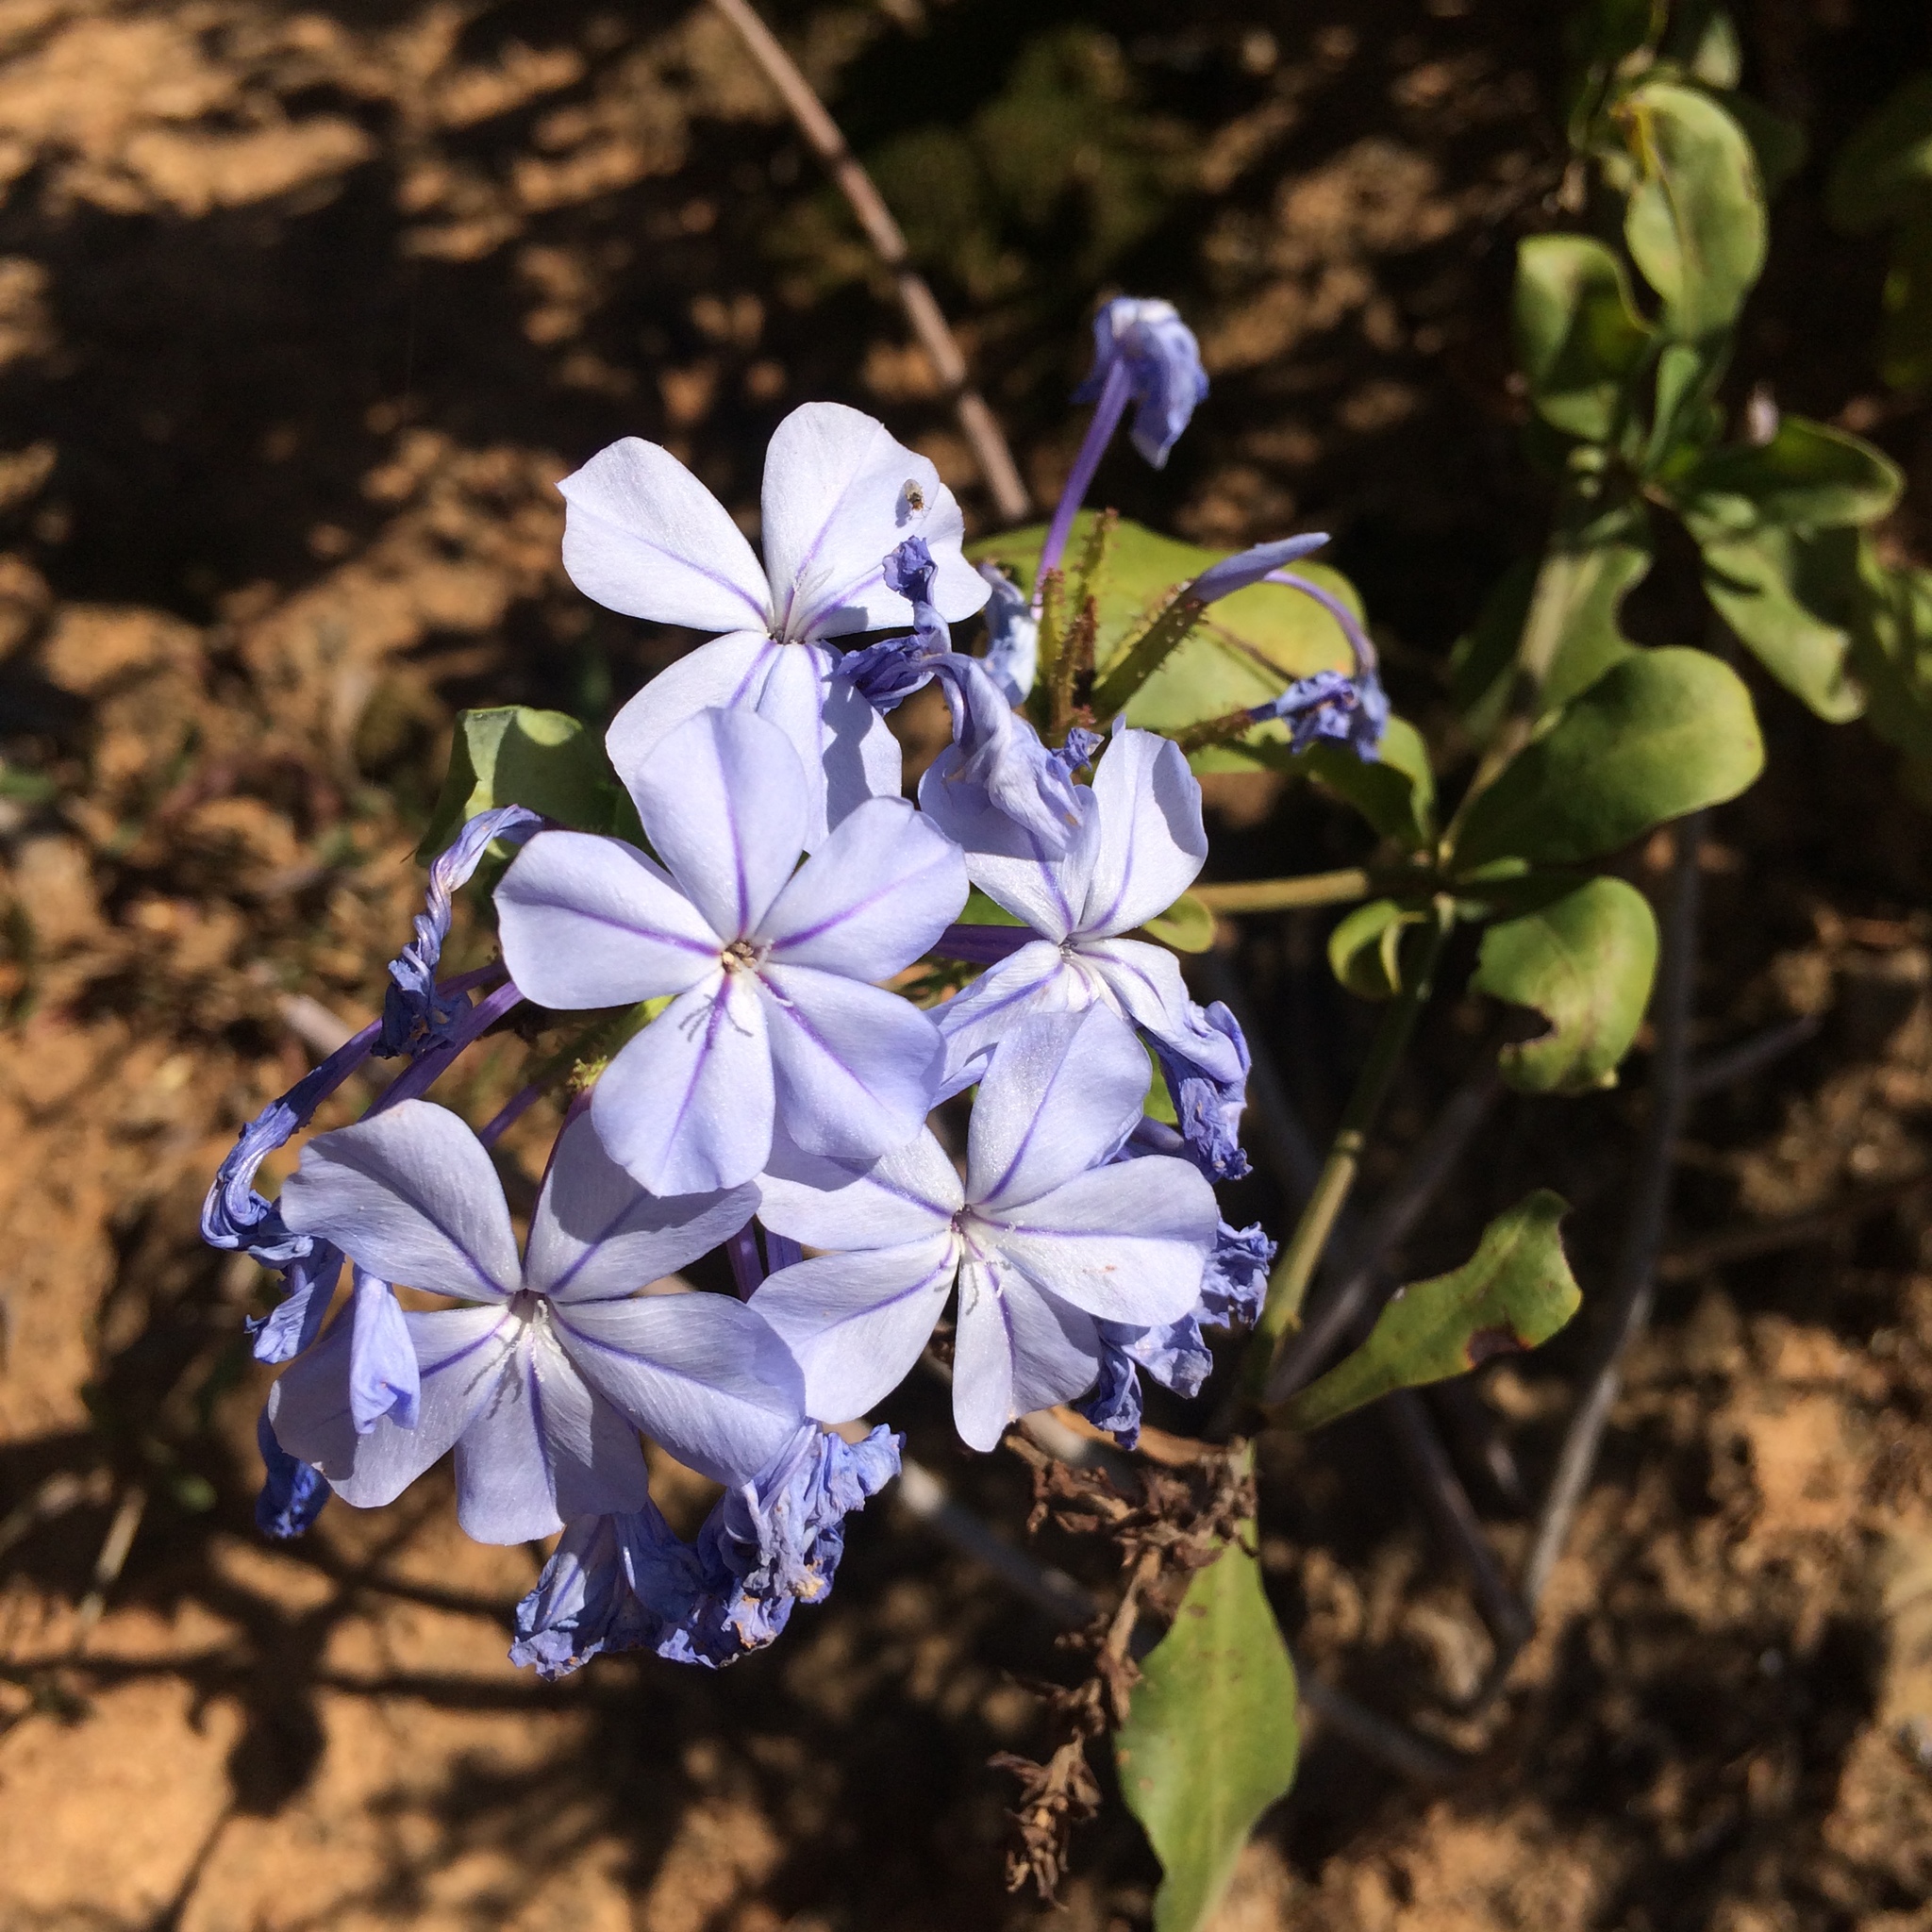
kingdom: Plantae
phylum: Tracheophyta
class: Magnoliopsida
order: Caryophyllales
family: Plumbaginaceae
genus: Plumbago
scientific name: Plumbago auriculata
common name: Cape leadwort
